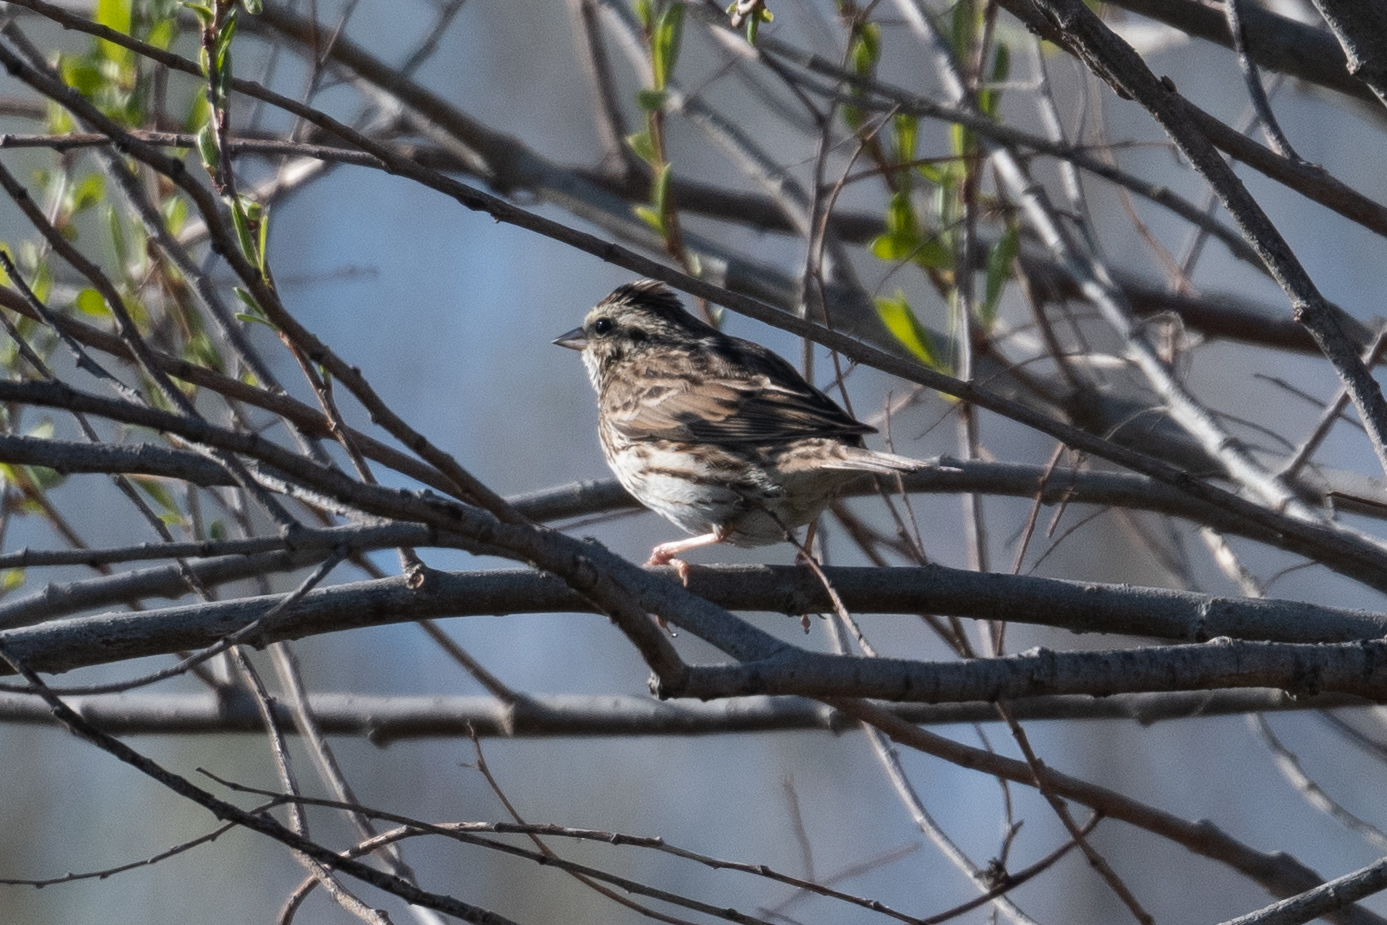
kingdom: Animalia
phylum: Chordata
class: Aves
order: Passeriformes
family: Passerellidae
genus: Melospiza
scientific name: Melospiza melodia
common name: Song sparrow
